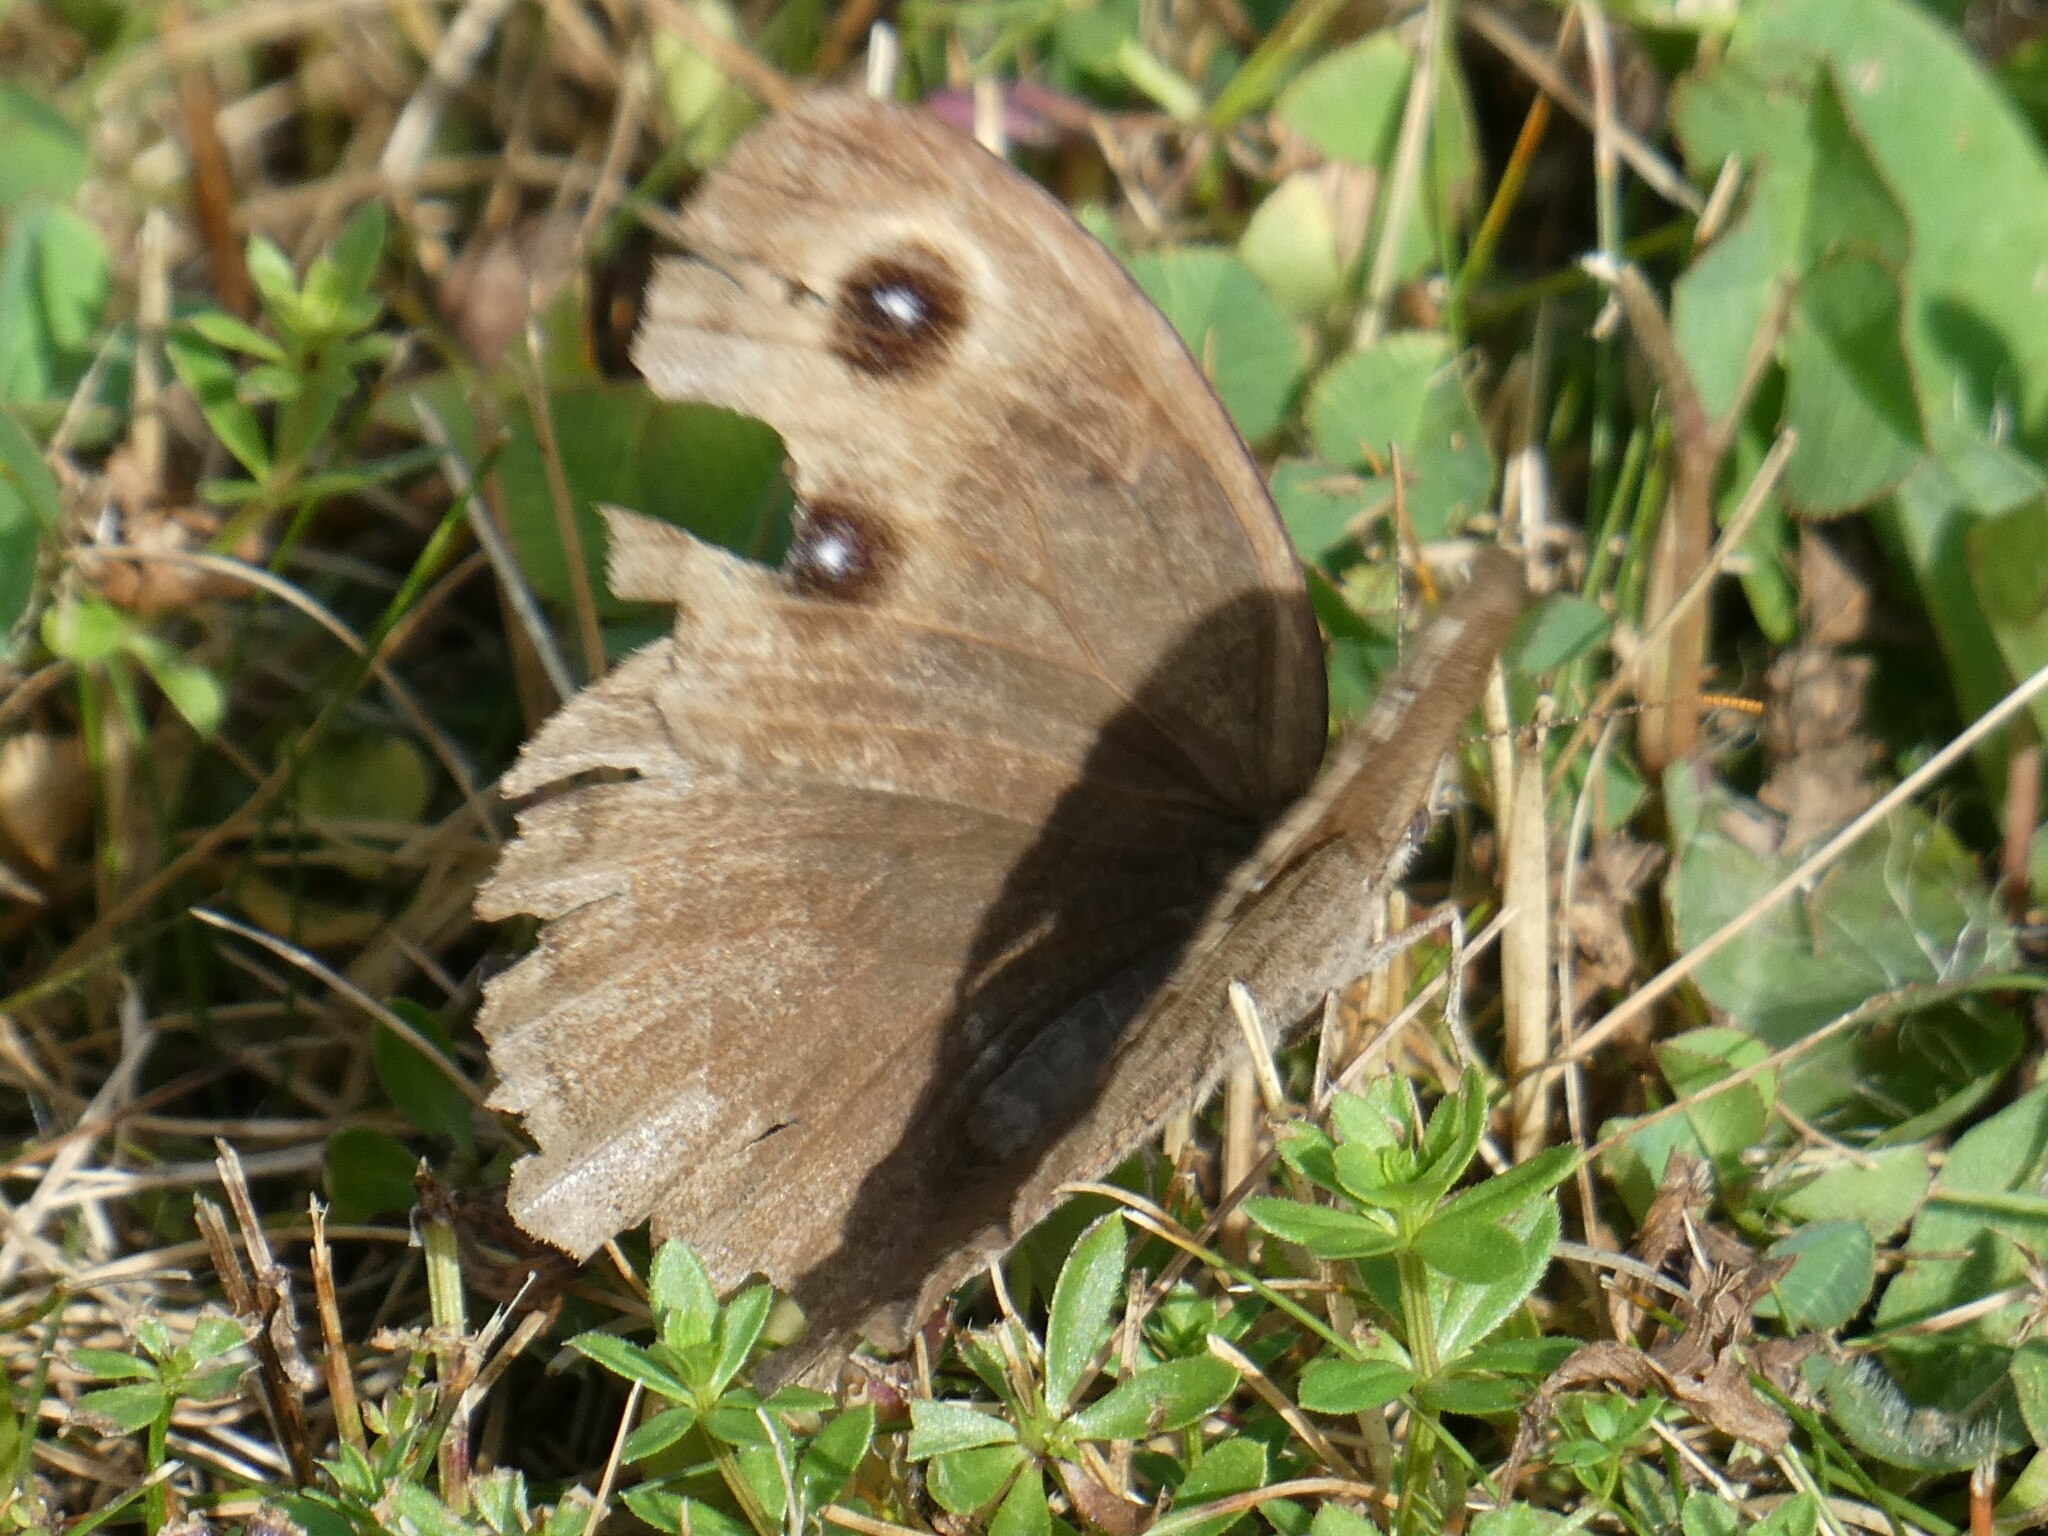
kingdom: Animalia
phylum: Arthropoda
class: Insecta
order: Lepidoptera
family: Nymphalidae
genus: Cercyonis
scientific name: Cercyonis pegala
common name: Common wood-nymph
